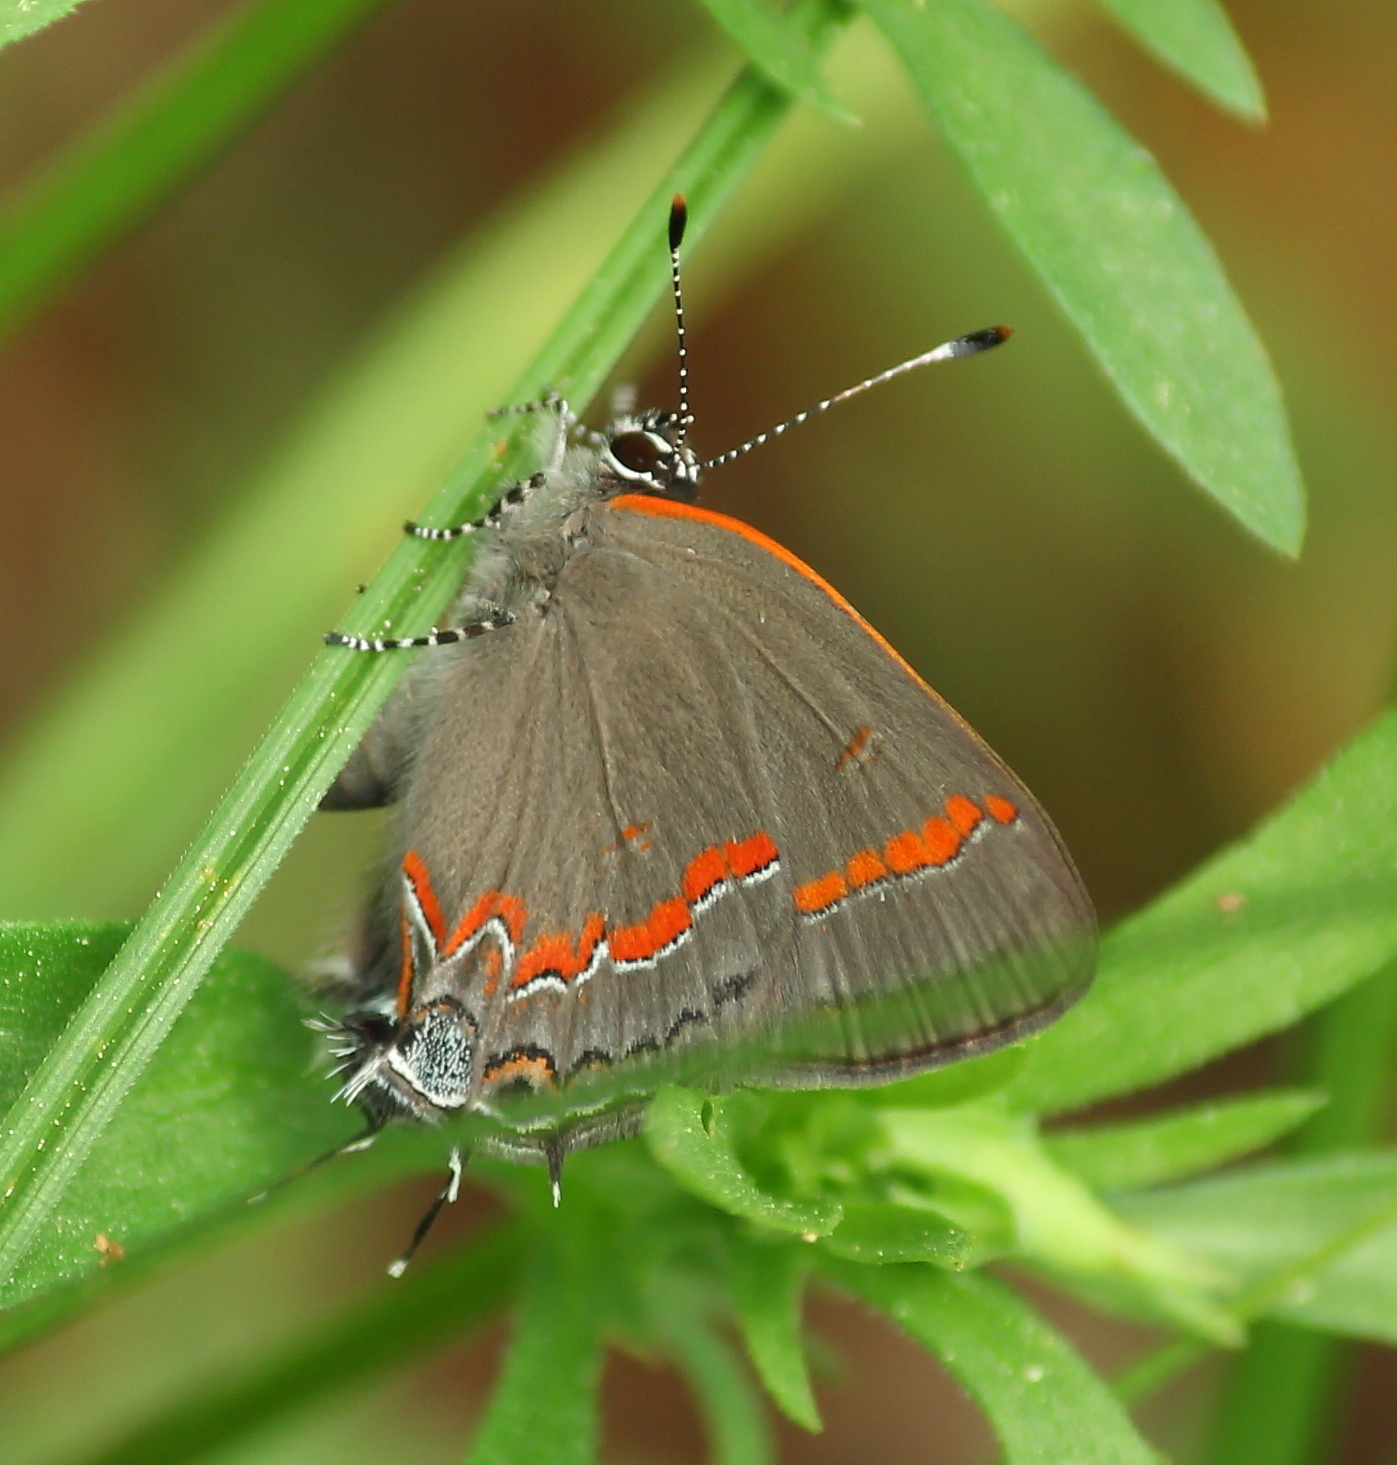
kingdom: Animalia
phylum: Arthropoda
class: Insecta
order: Lepidoptera
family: Lycaenidae
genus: Calycopis
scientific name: Calycopis cecrops
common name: Red-banded hairstreak
